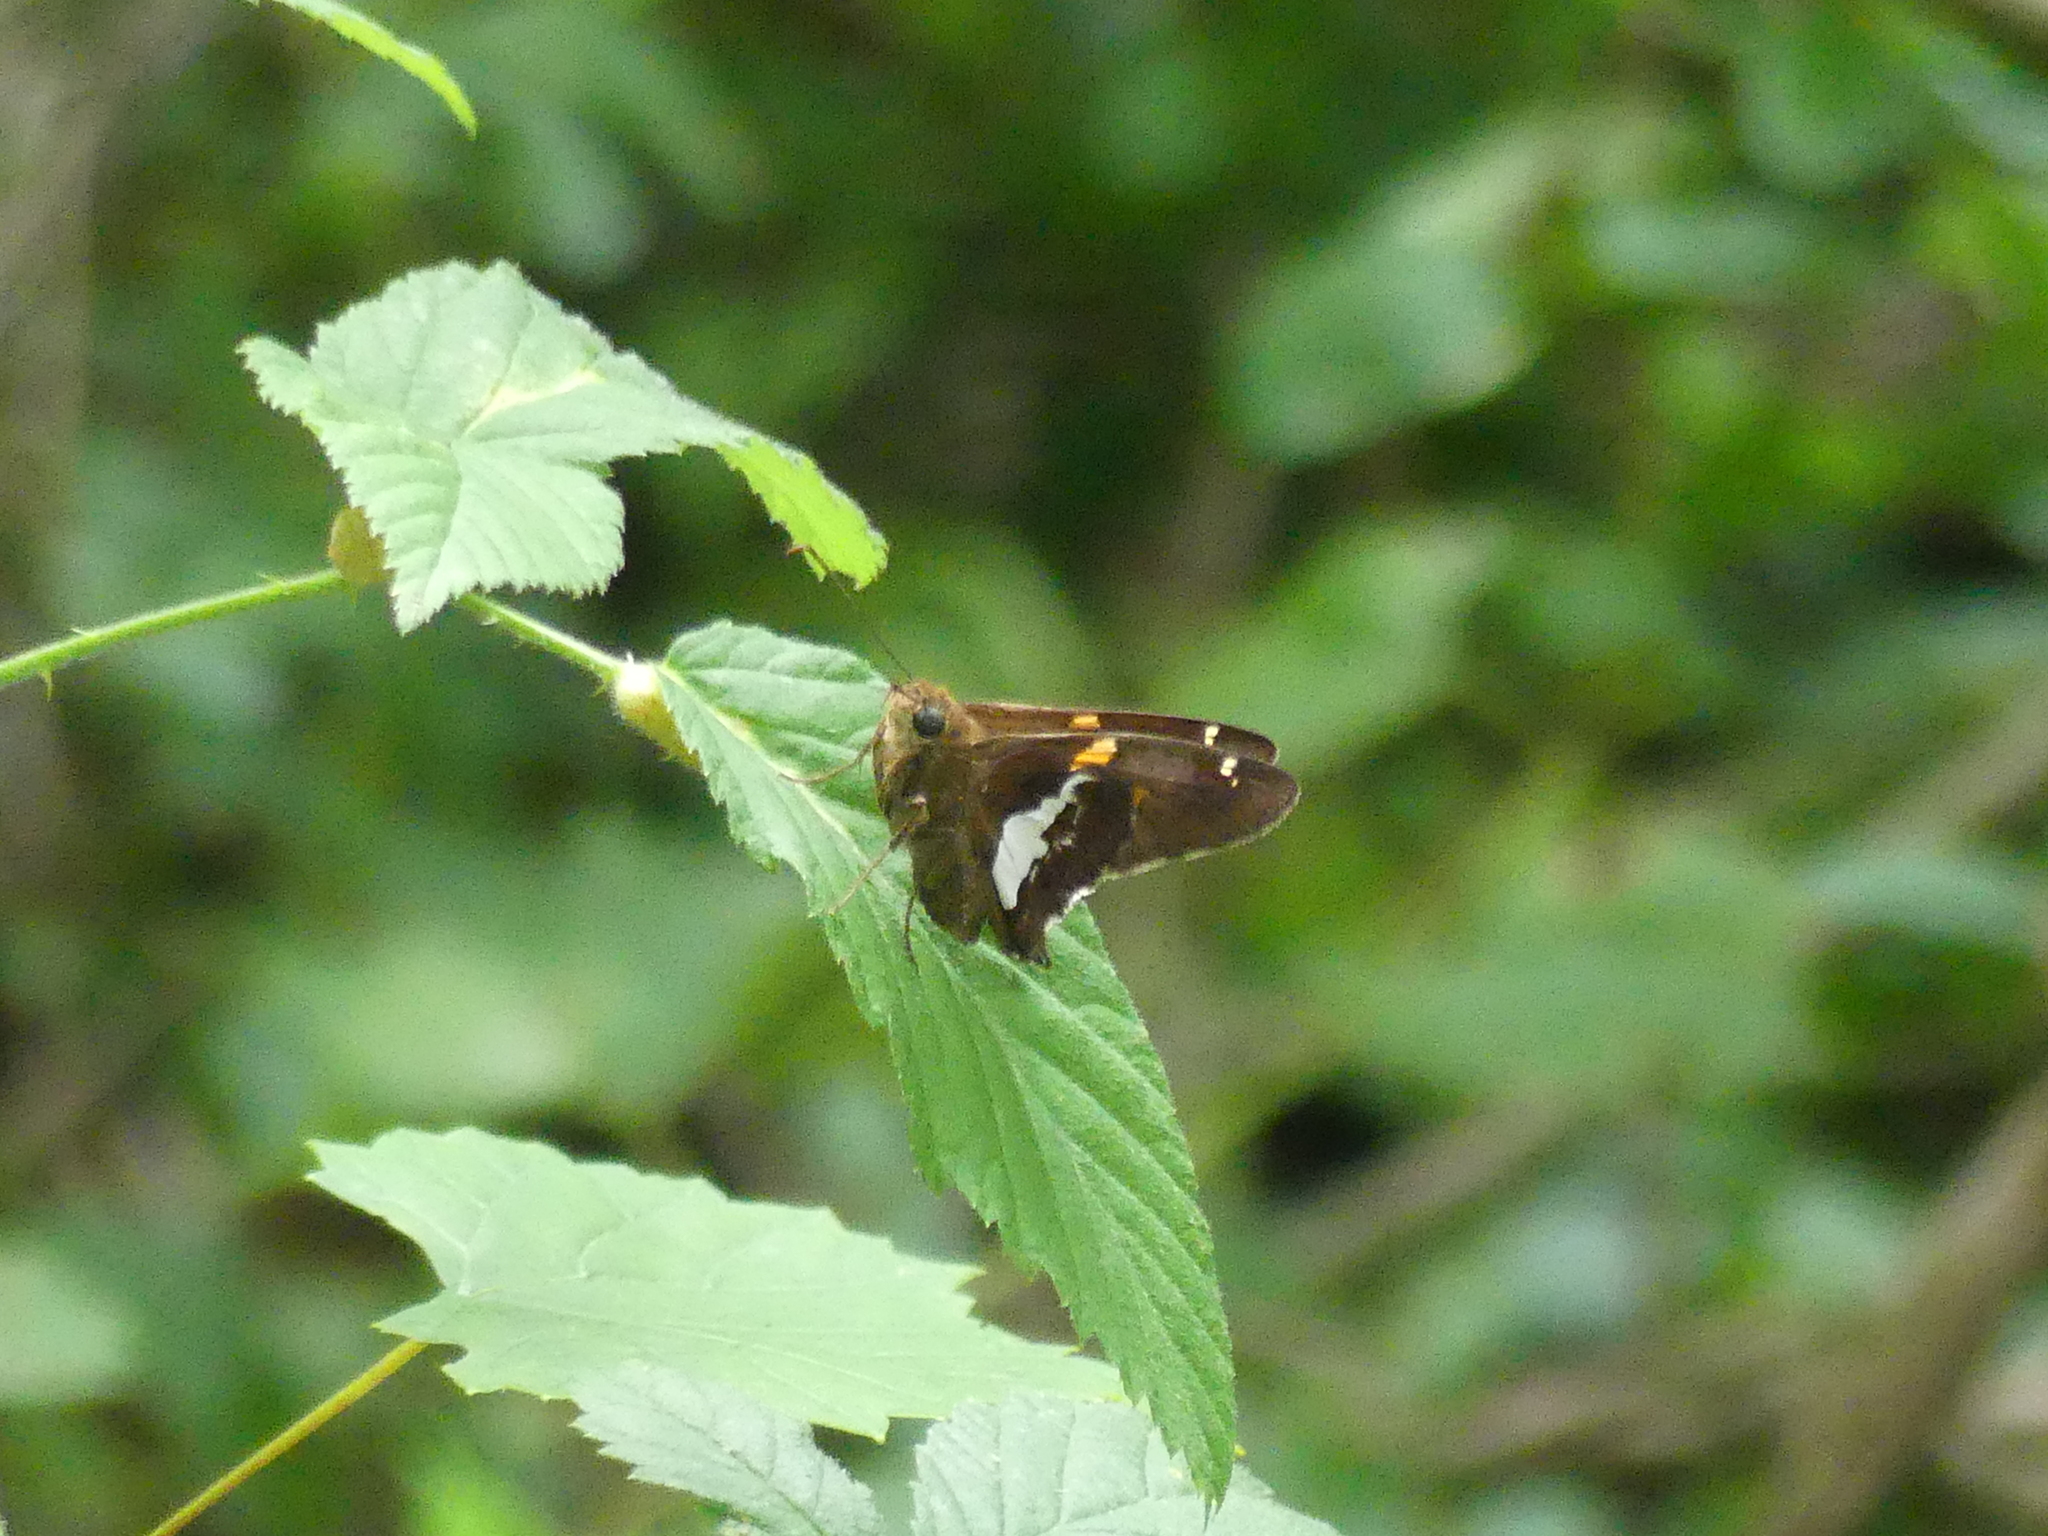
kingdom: Animalia
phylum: Arthropoda
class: Insecta
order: Lepidoptera
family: Hesperiidae
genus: Epargyreus
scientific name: Epargyreus clarus
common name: Silver-spotted skipper
